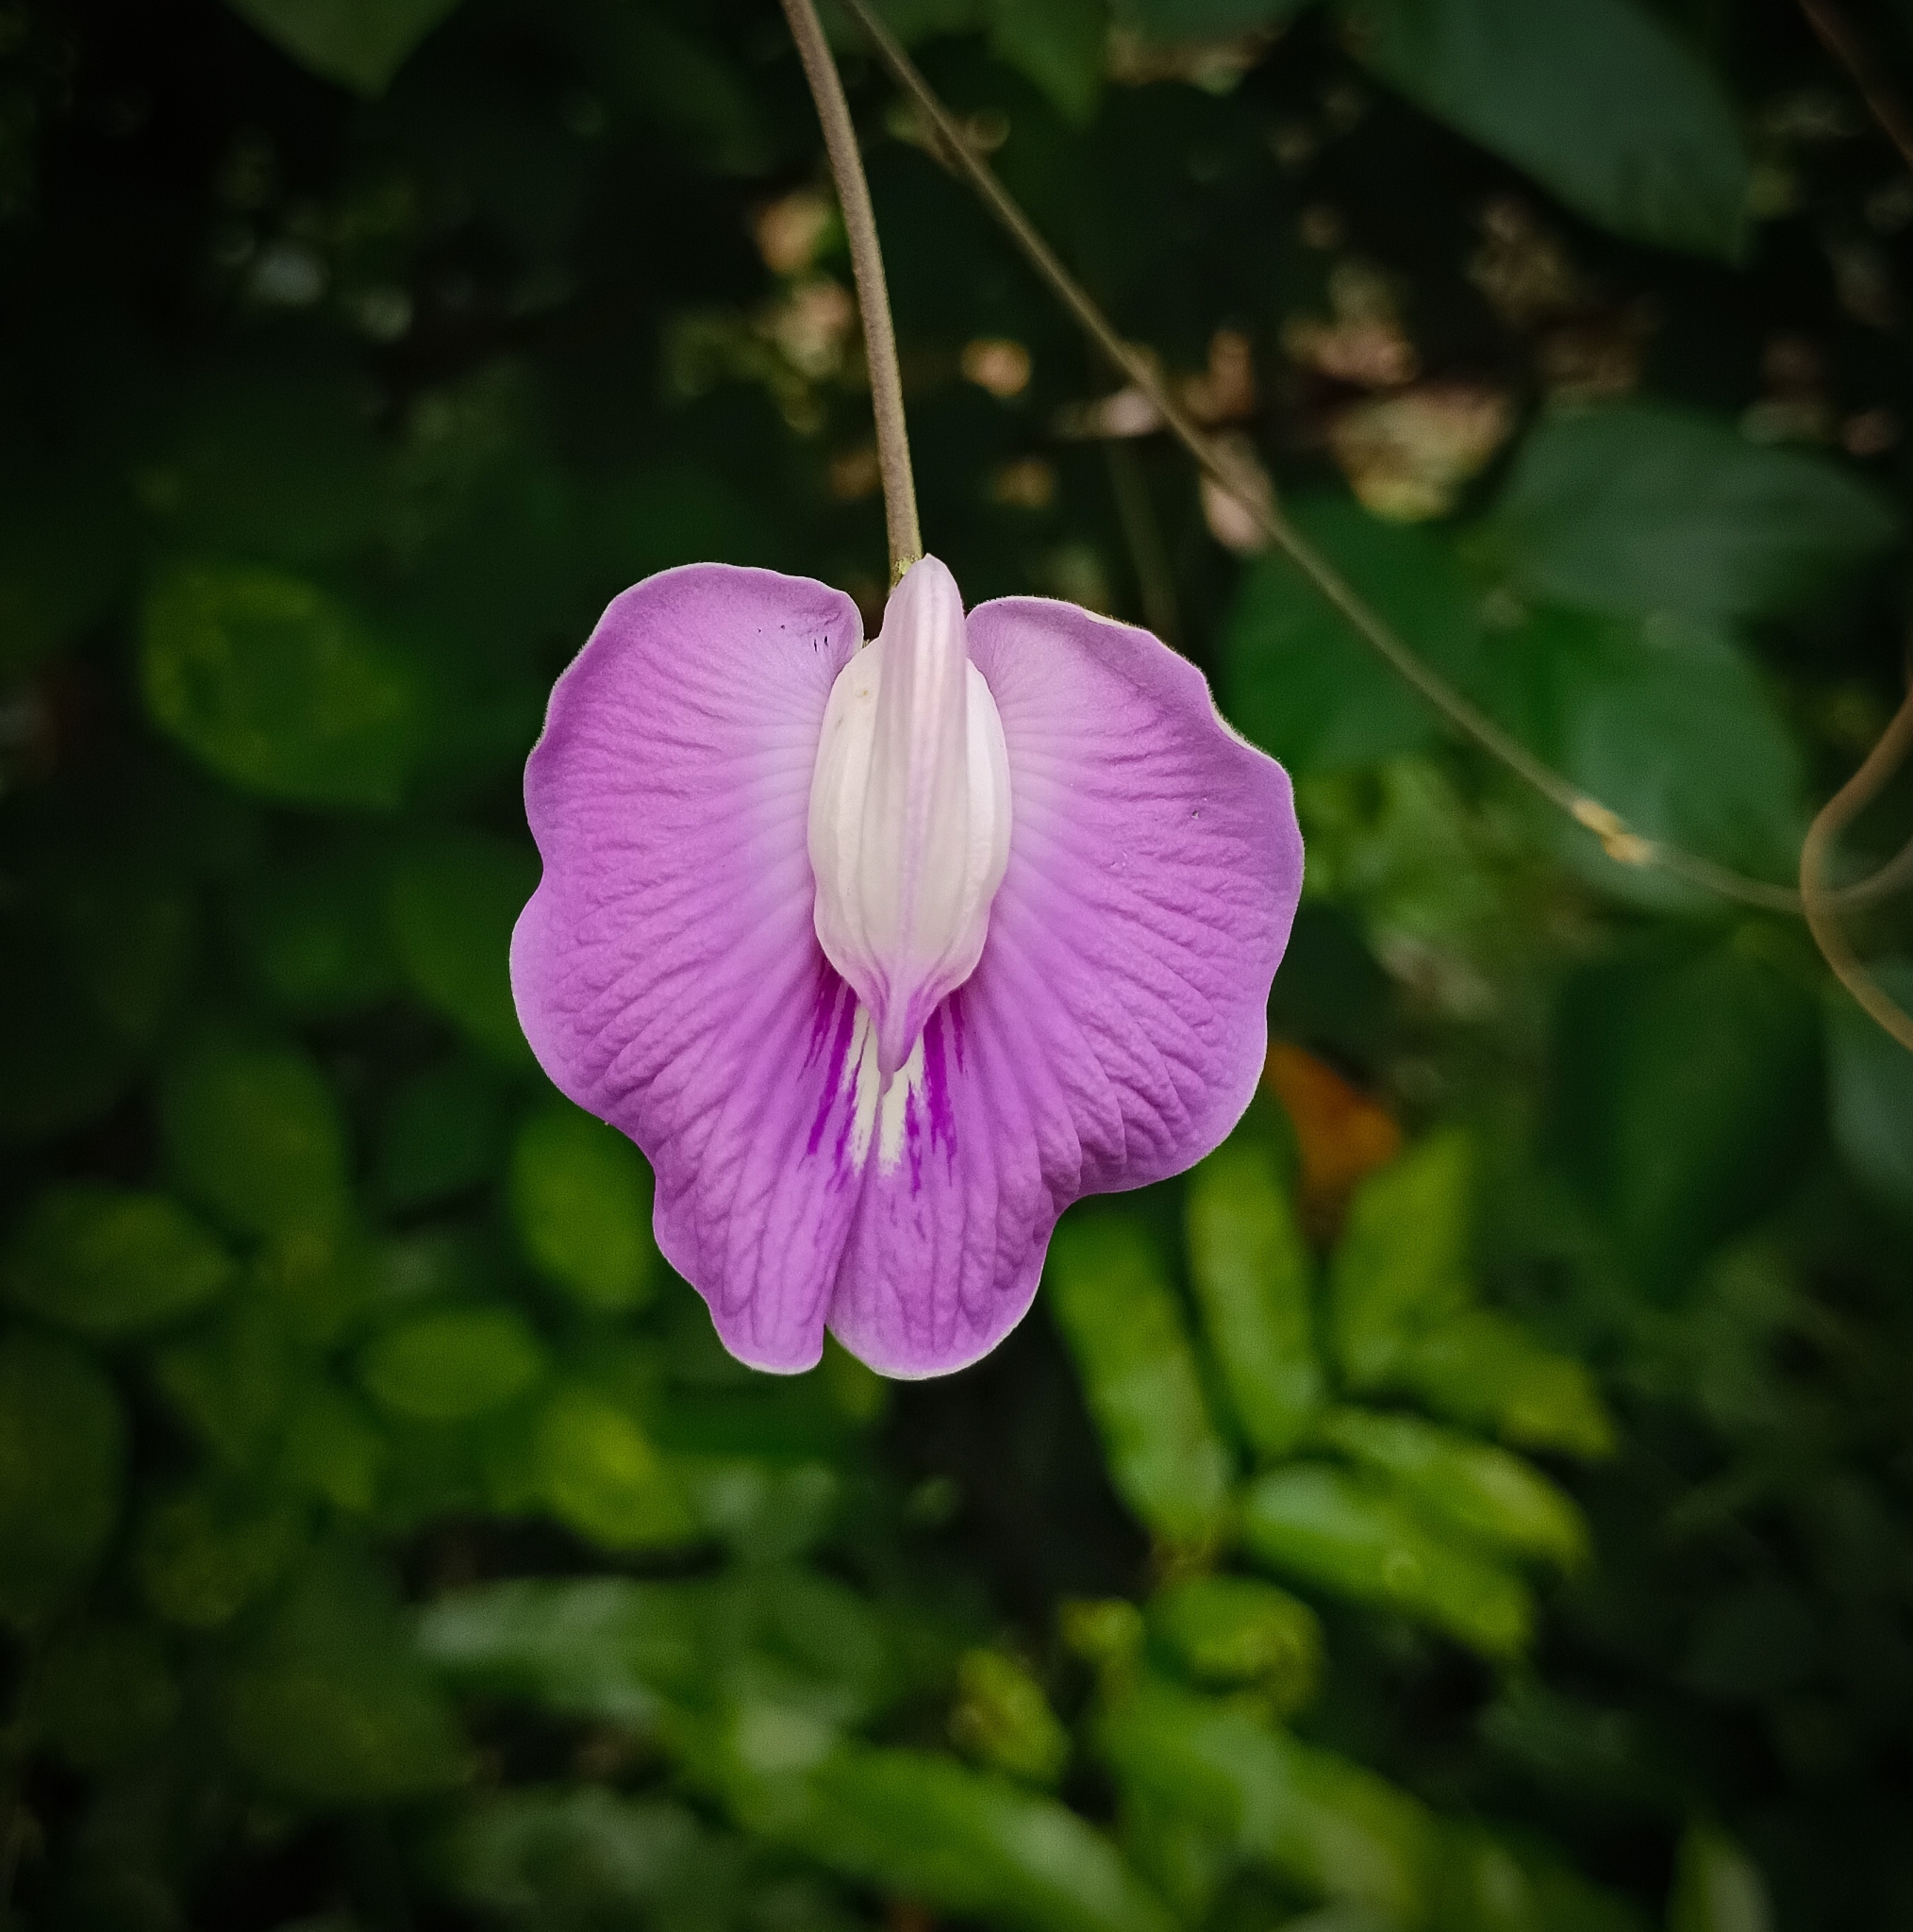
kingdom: Plantae
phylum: Tracheophyta
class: Magnoliopsida
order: Fabales
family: Fabaceae
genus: Centrosema
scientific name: Centrosema molle
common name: Soft butterfly pea
